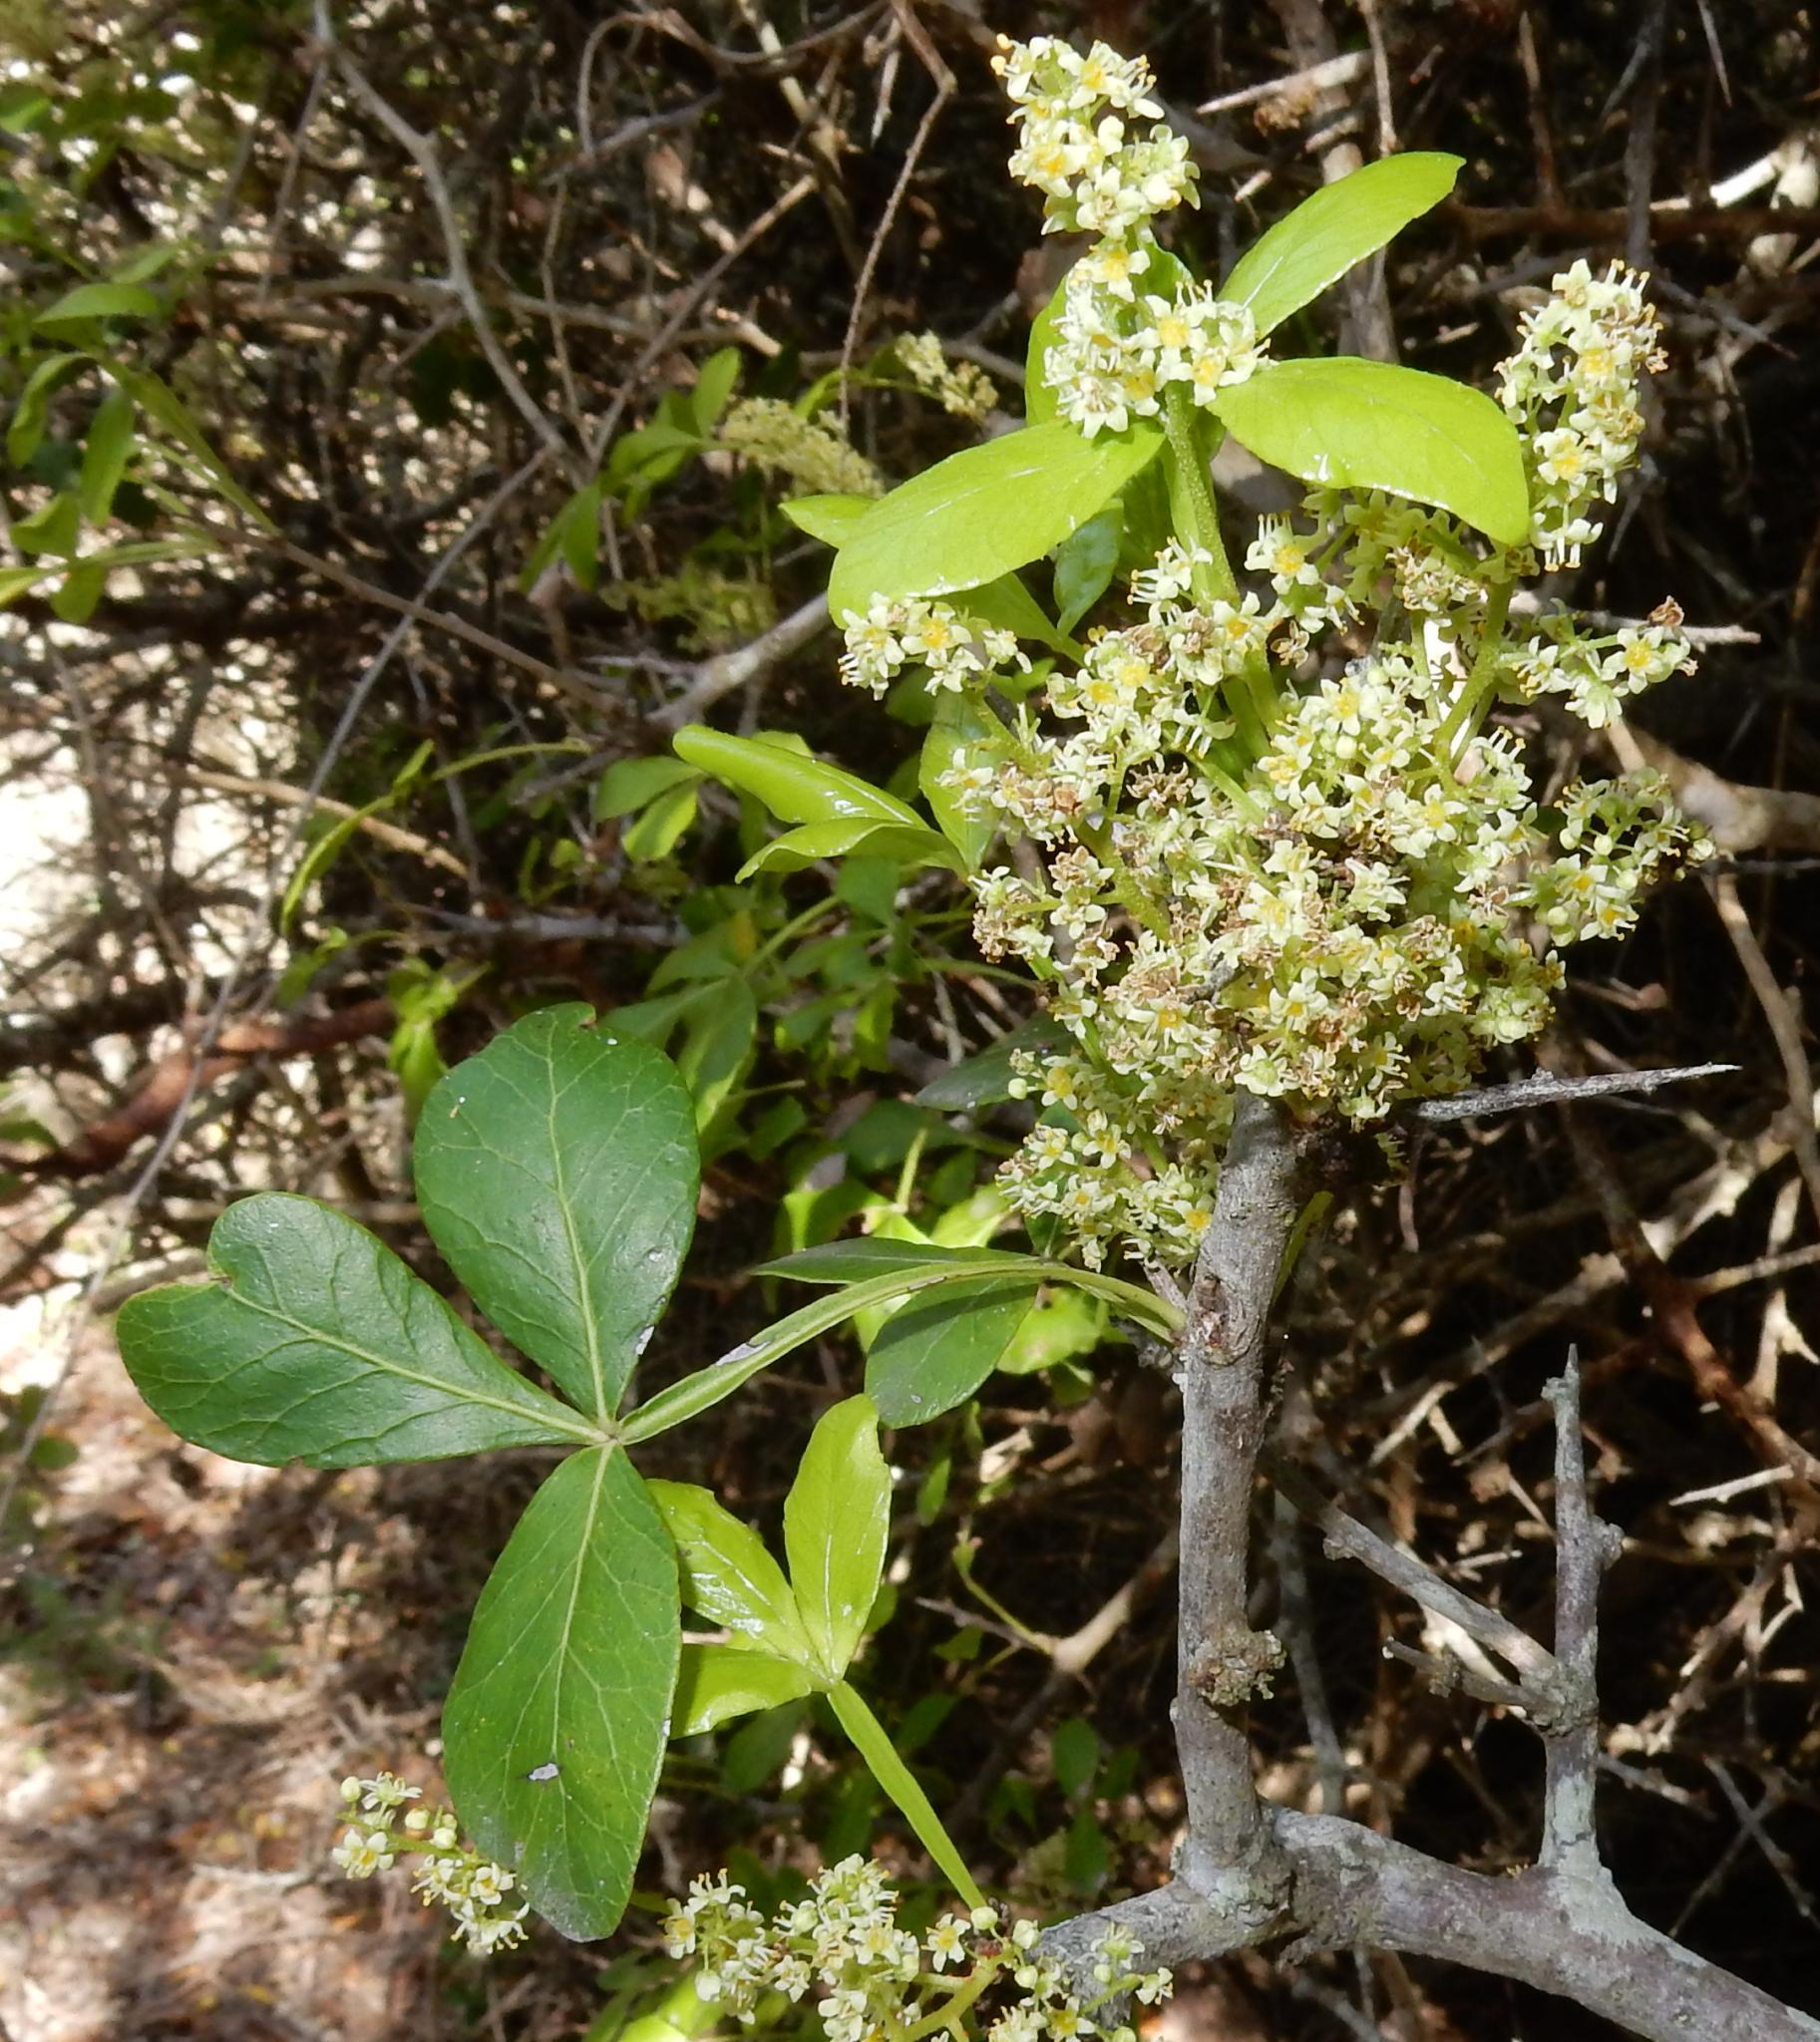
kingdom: Plantae
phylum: Tracheophyta
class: Magnoliopsida
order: Sapindales
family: Anacardiaceae
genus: Searsia
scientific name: Searsia pterota
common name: Winged currant
